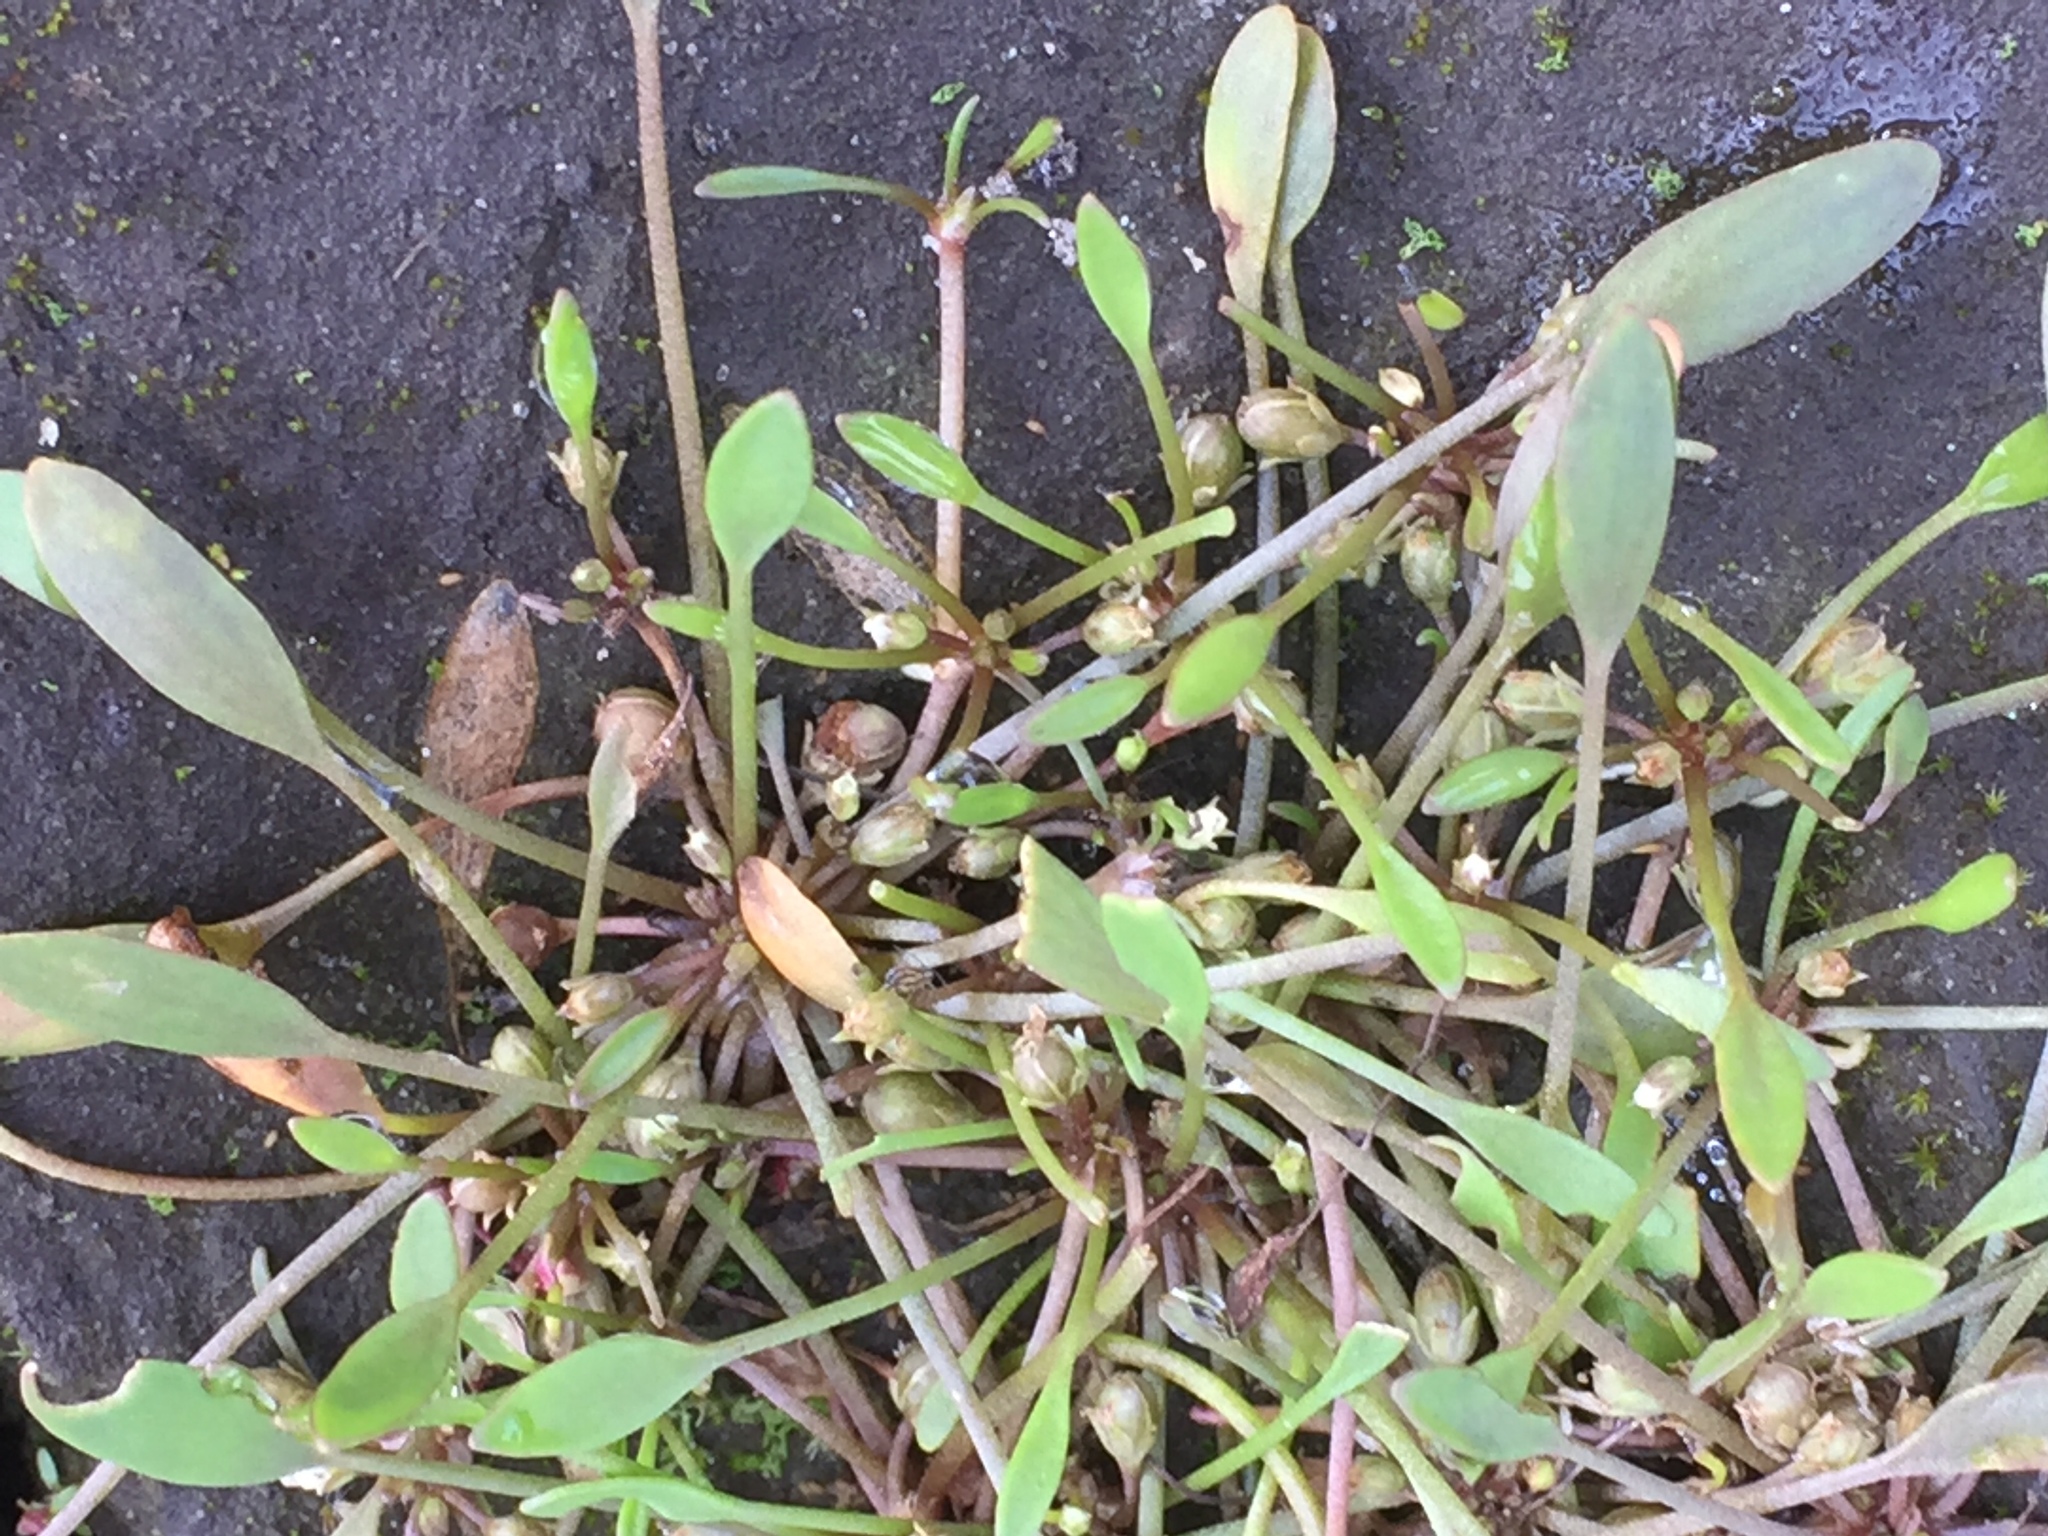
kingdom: Plantae
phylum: Tracheophyta
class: Magnoliopsida
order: Lamiales
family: Scrophulariaceae
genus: Limosella
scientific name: Limosella aquatica
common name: Mudwort
